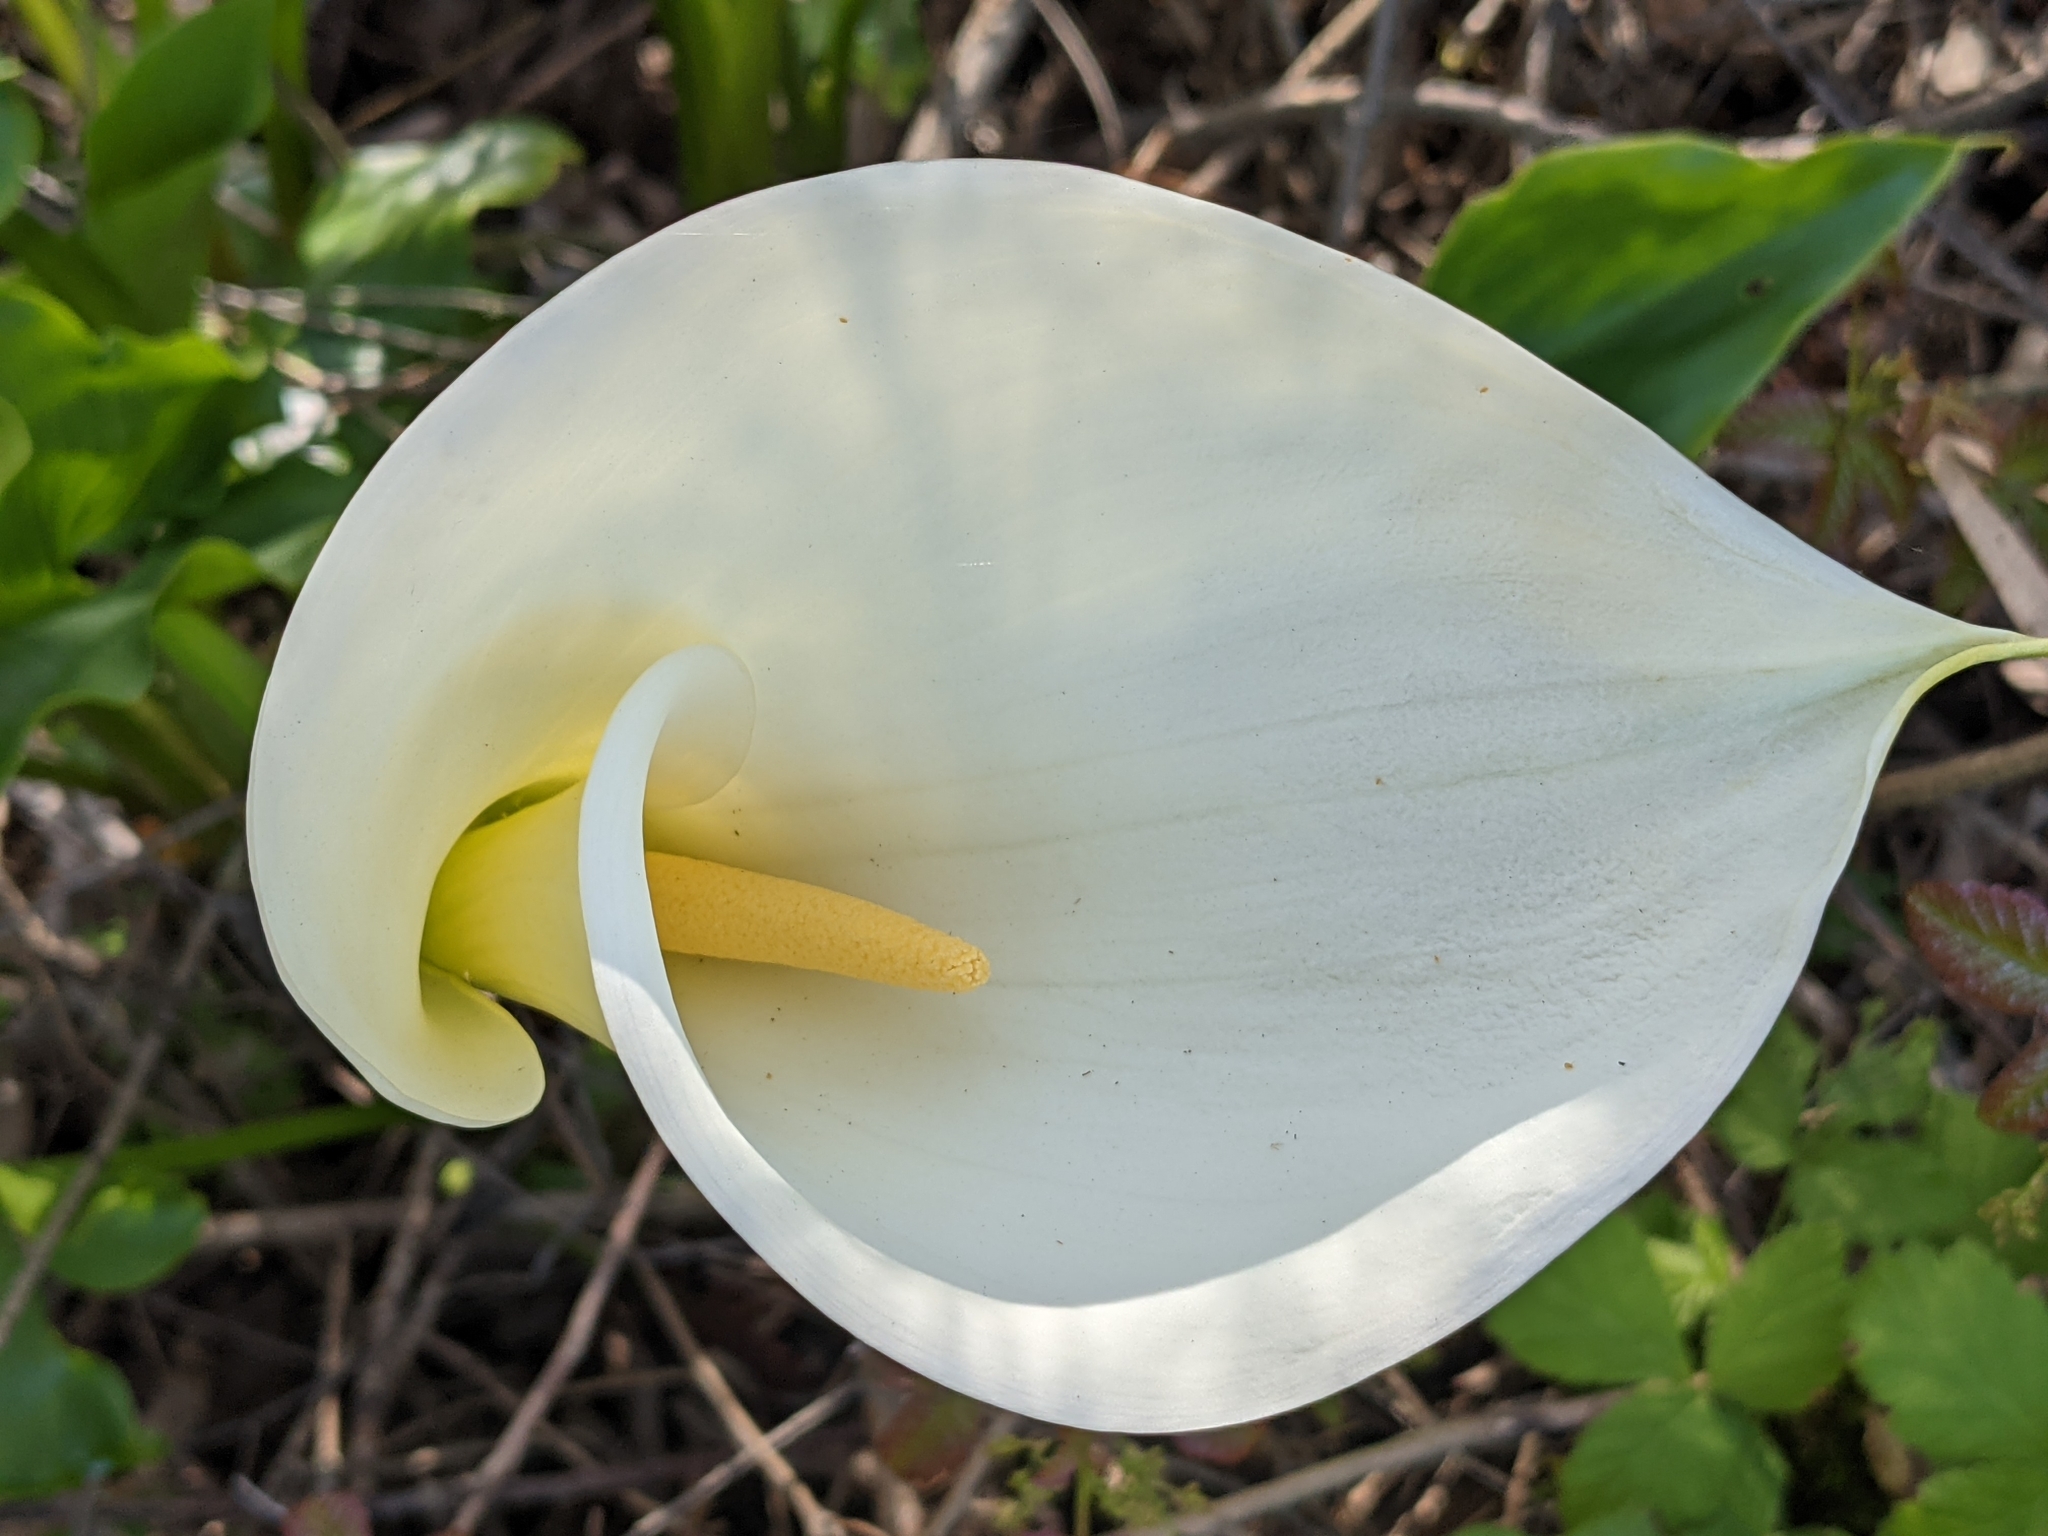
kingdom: Plantae
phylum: Tracheophyta
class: Liliopsida
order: Alismatales
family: Araceae
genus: Zantedeschia
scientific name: Zantedeschia aethiopica
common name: Altar-lily
